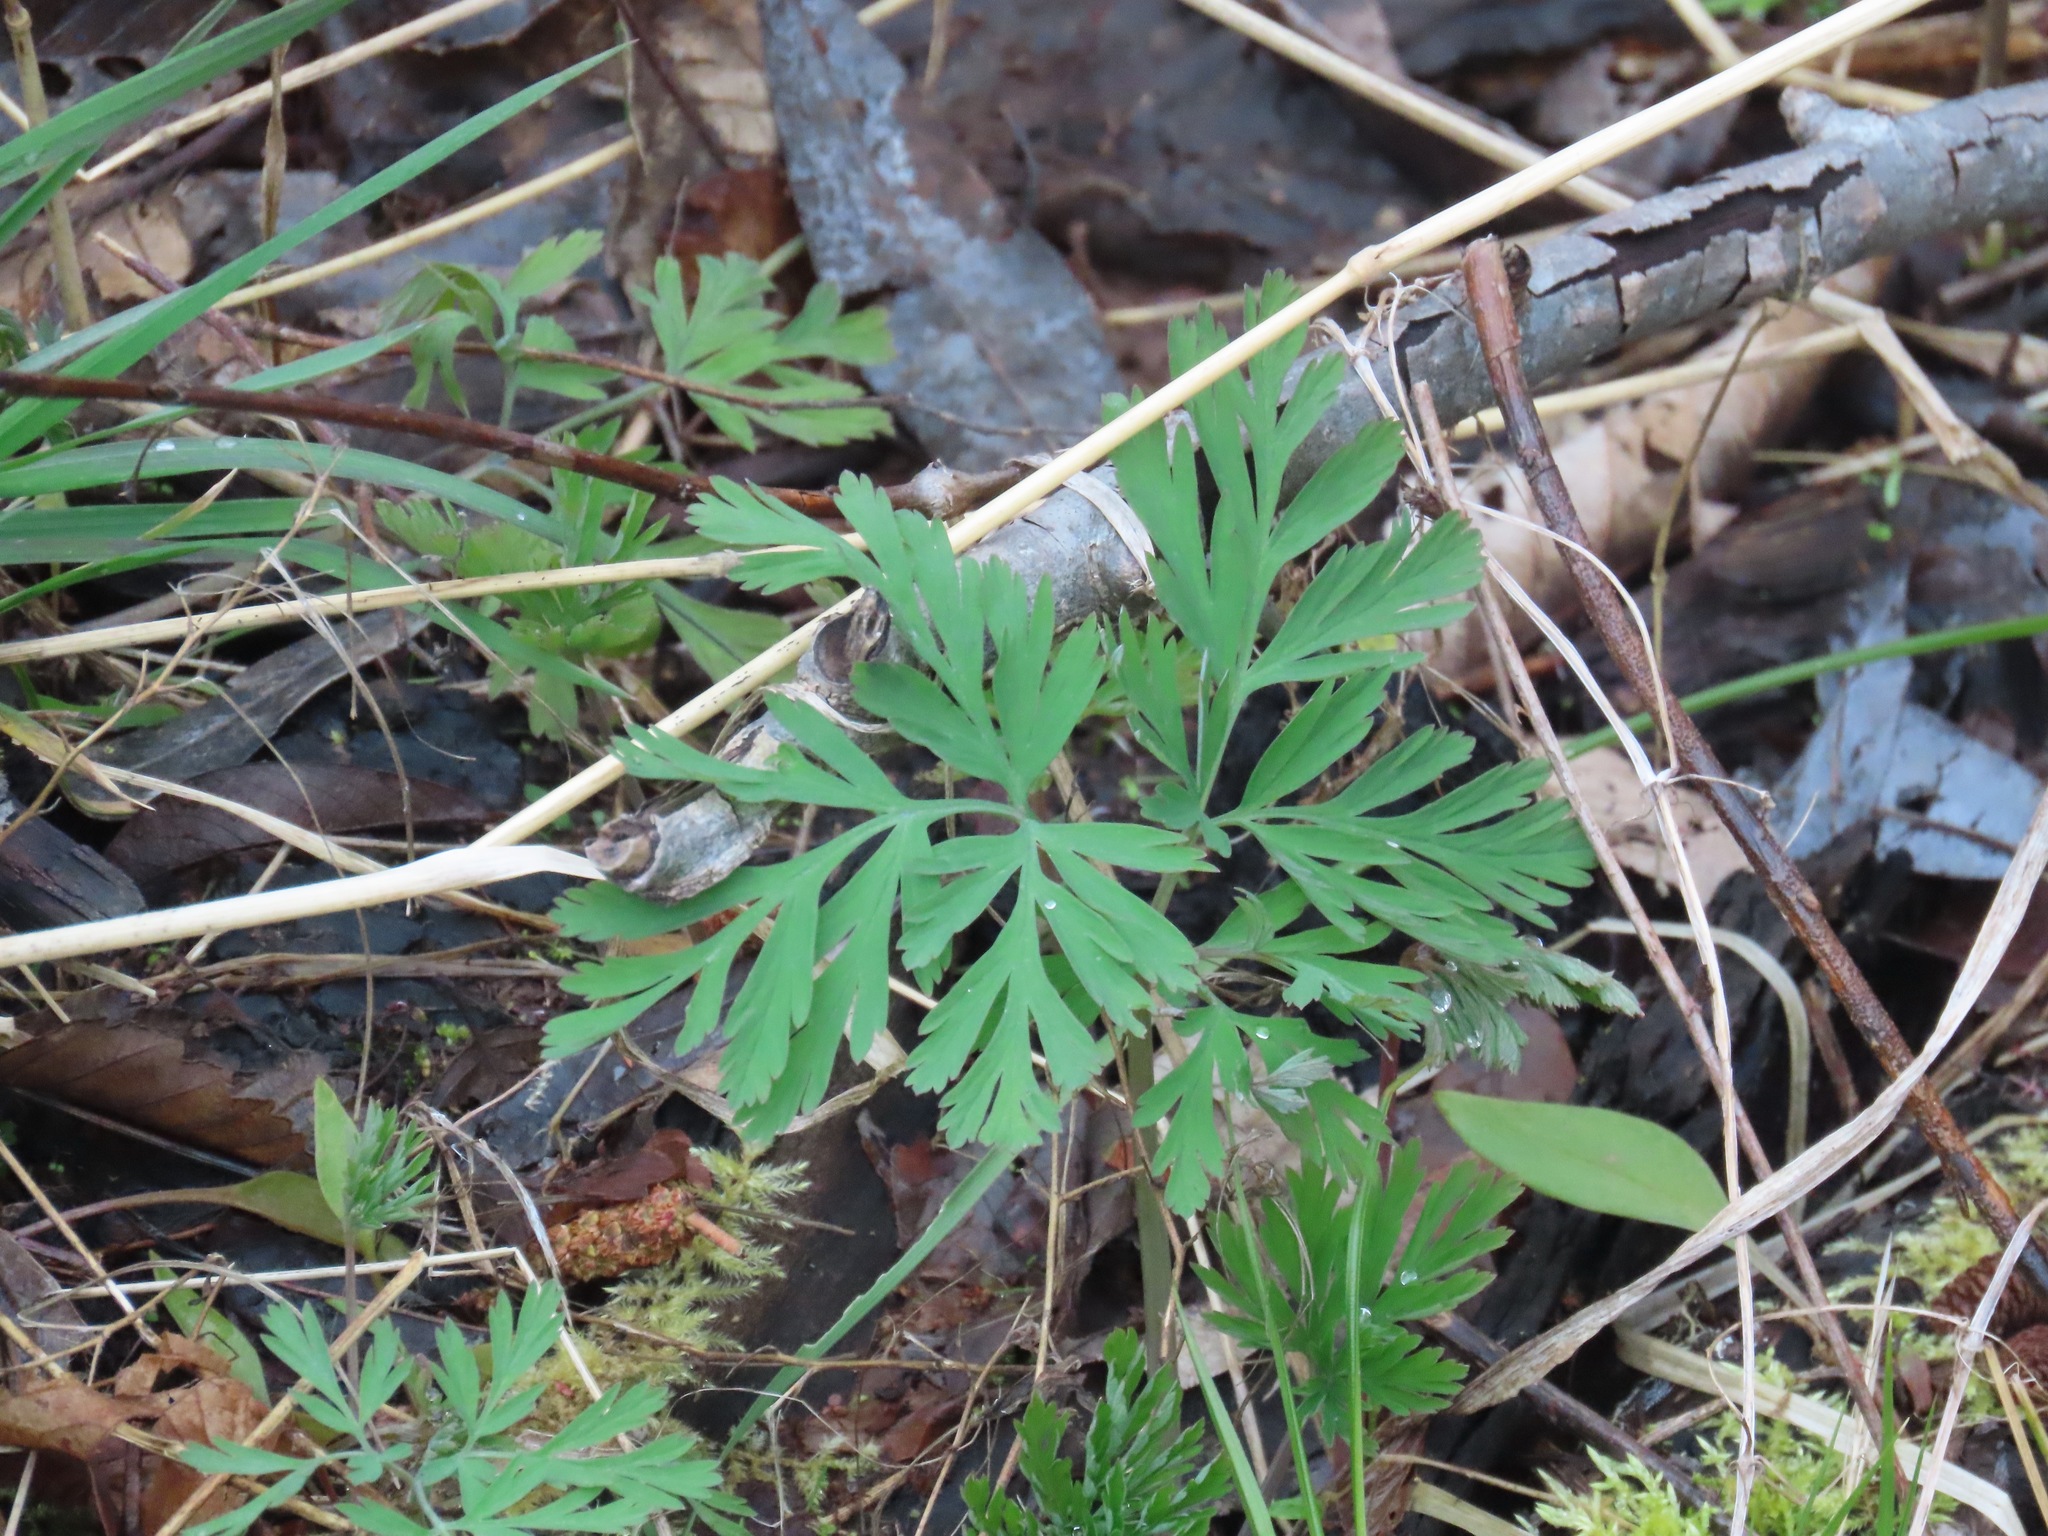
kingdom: Plantae
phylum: Tracheophyta
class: Magnoliopsida
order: Ranunculales
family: Papaveraceae
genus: Dicentra
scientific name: Dicentra formosa
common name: Bleeding-heart
